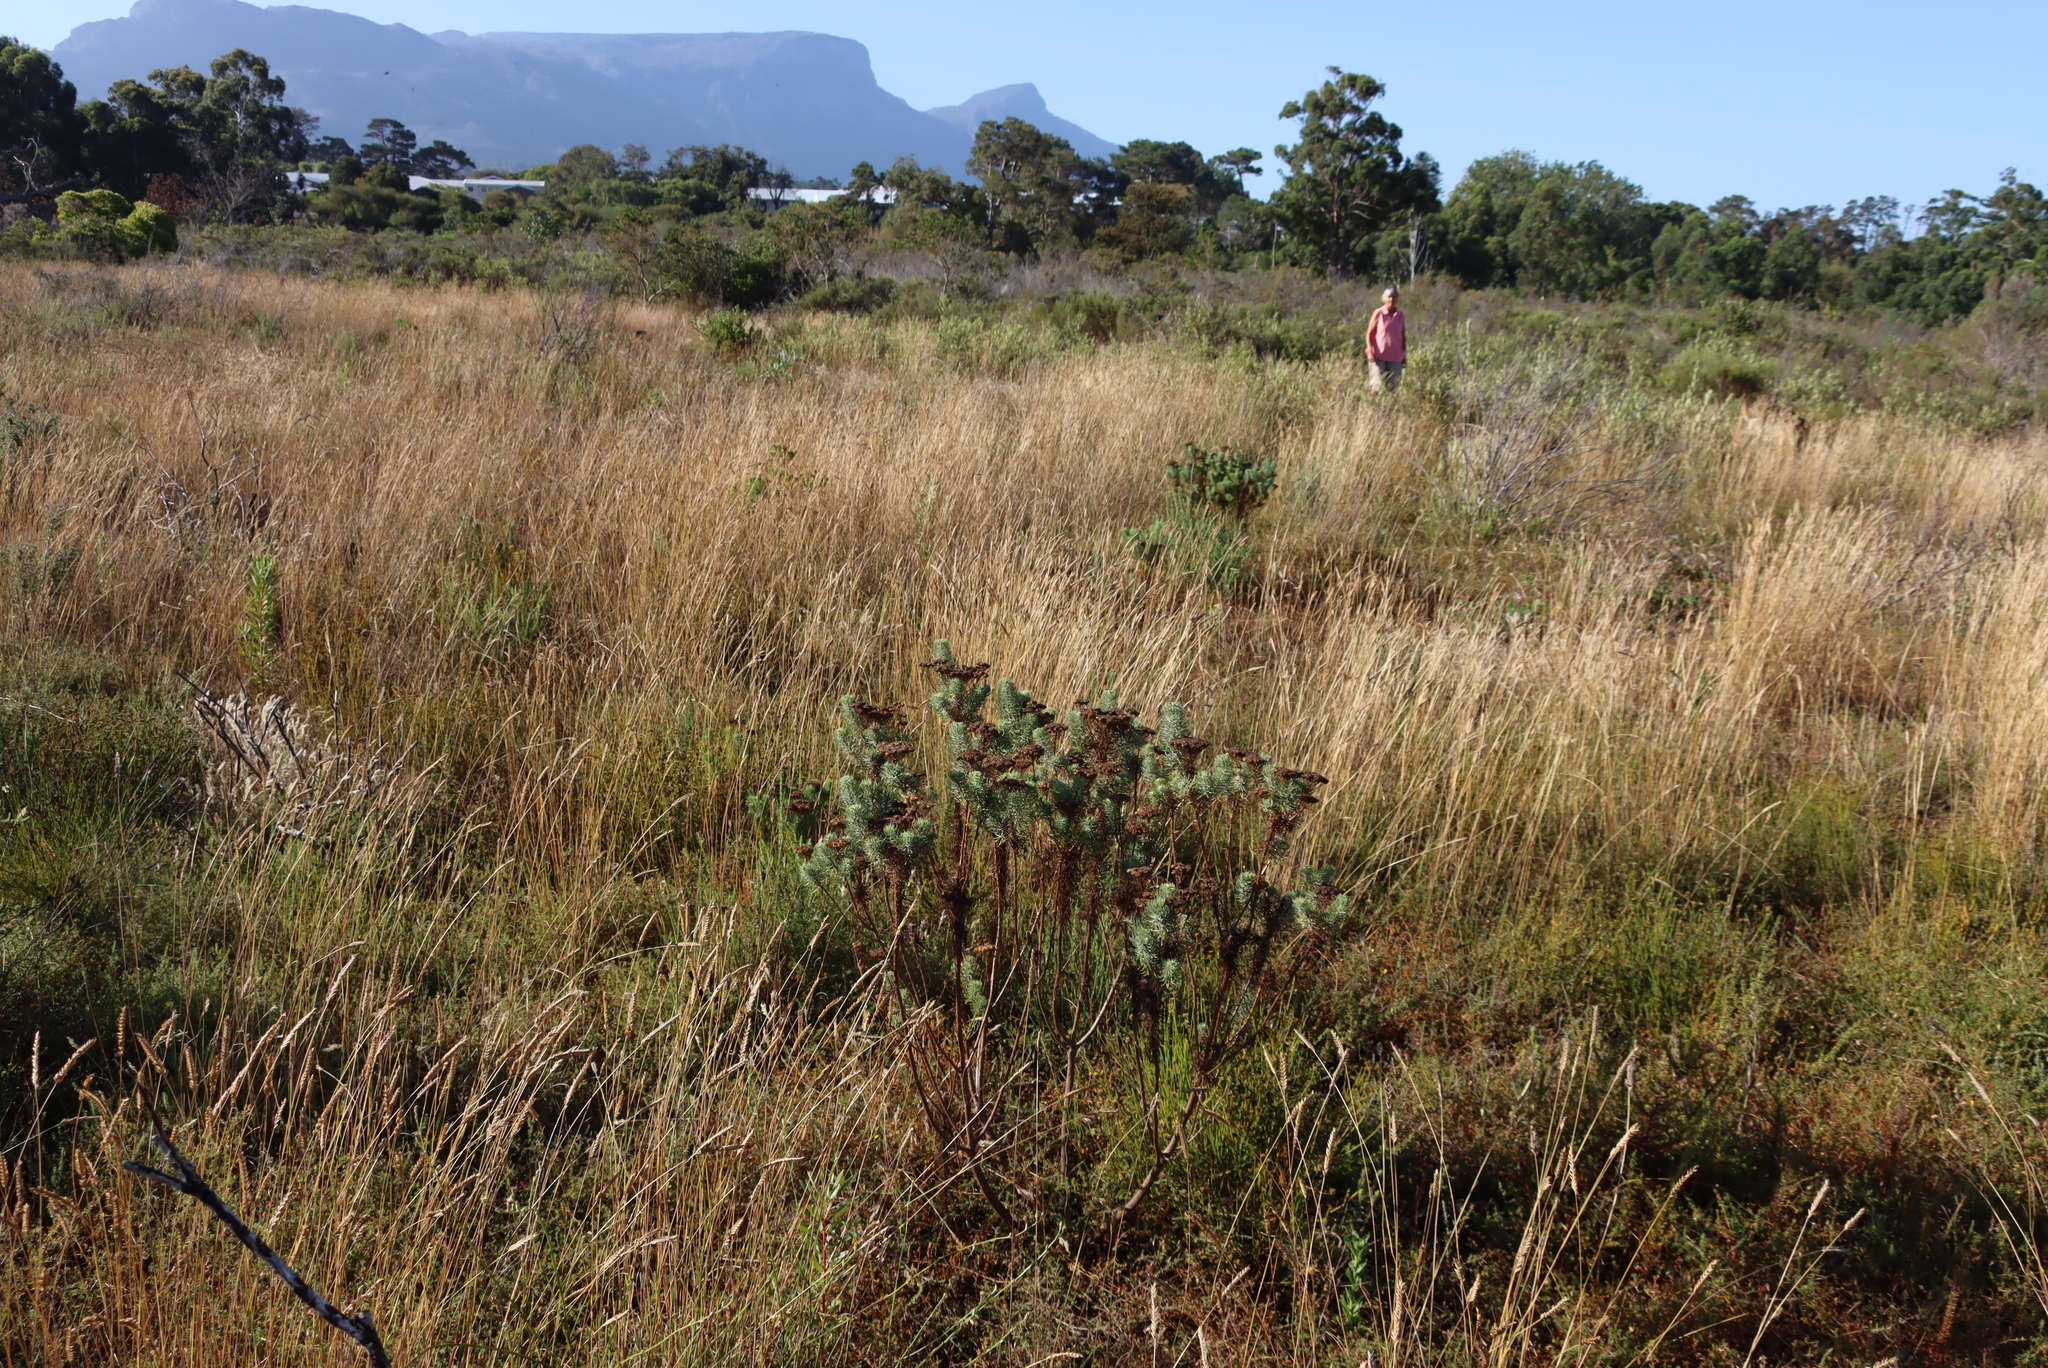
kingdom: Plantae
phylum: Tracheophyta
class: Magnoliopsida
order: Asterales
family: Asteraceae
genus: Athanasia
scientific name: Athanasia crithmifolia
